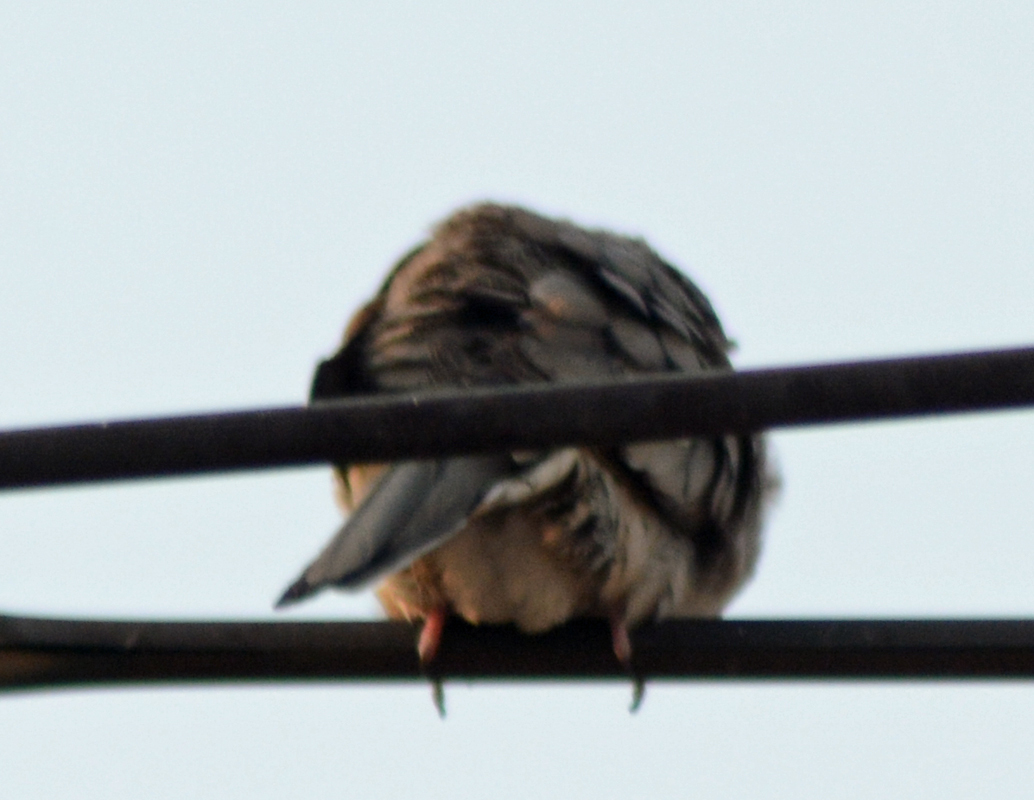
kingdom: Animalia
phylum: Chordata
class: Aves
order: Columbiformes
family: Columbidae
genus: Columbina
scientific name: Columbina inca
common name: Inca dove
